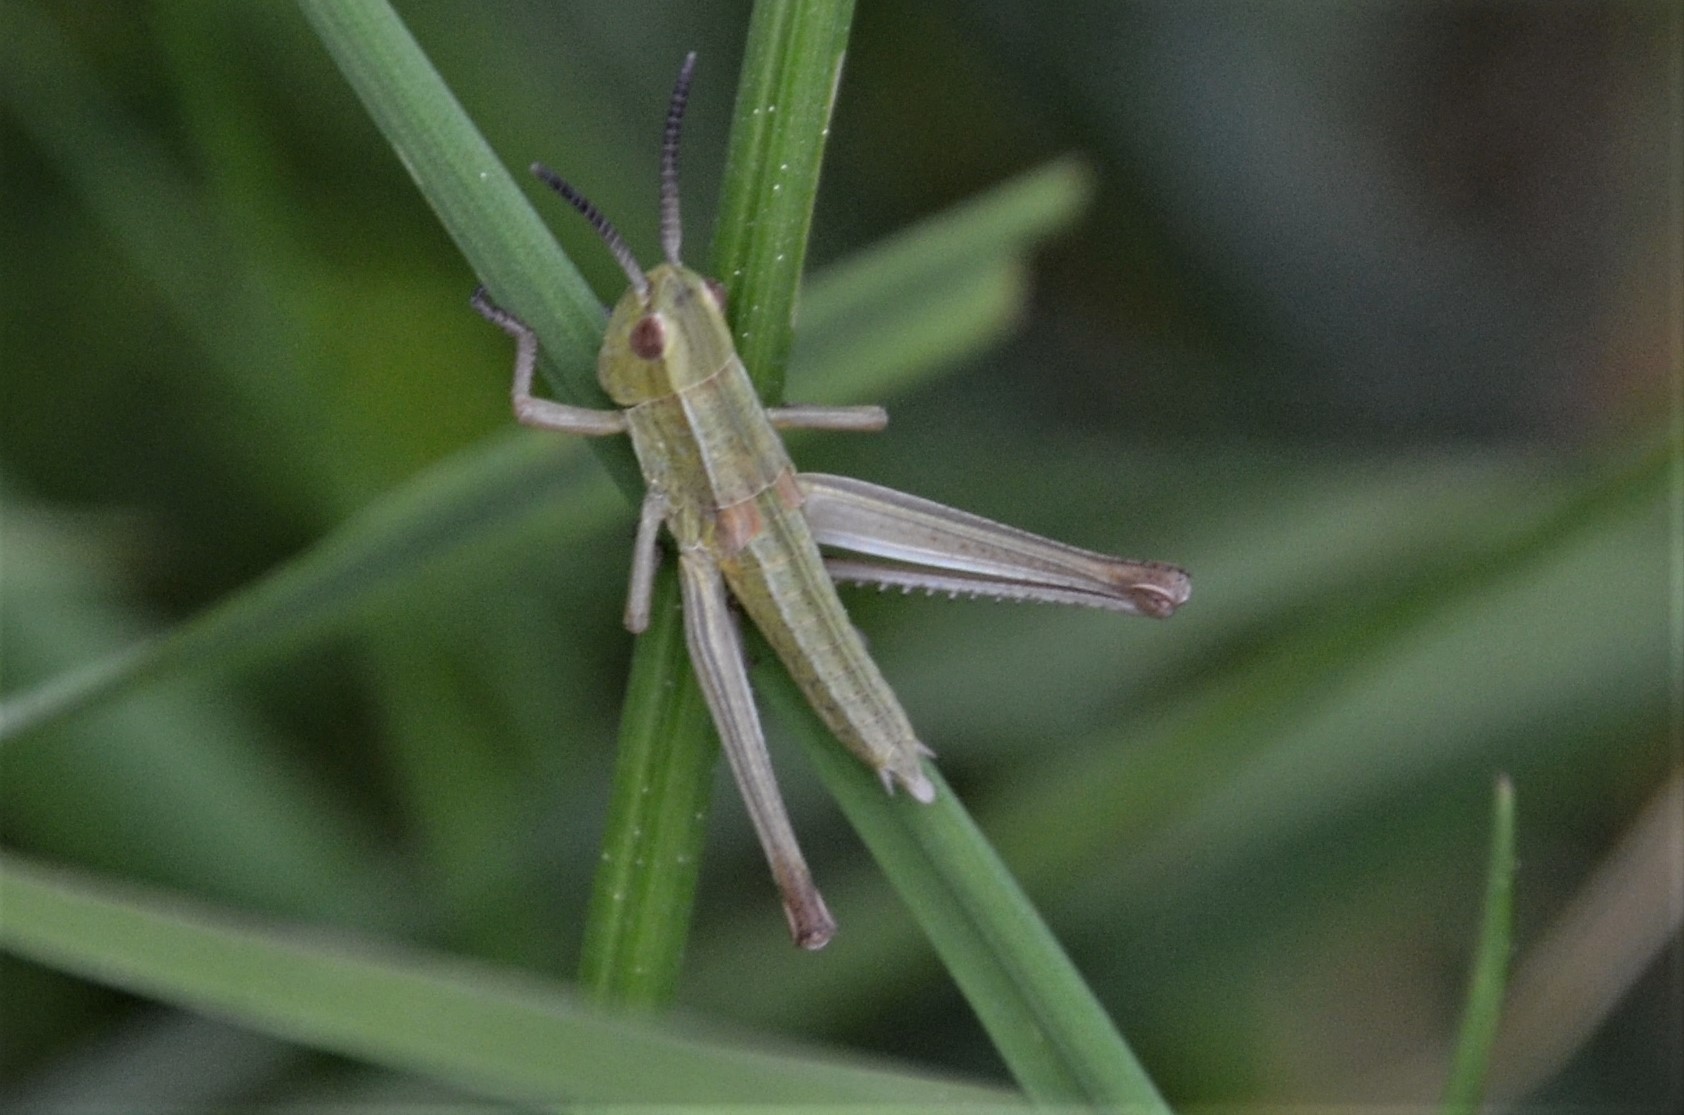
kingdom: Animalia
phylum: Arthropoda
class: Insecta
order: Orthoptera
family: Acrididae
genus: Euthystira
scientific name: Euthystira brachyptera
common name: Small gold grasshopper
